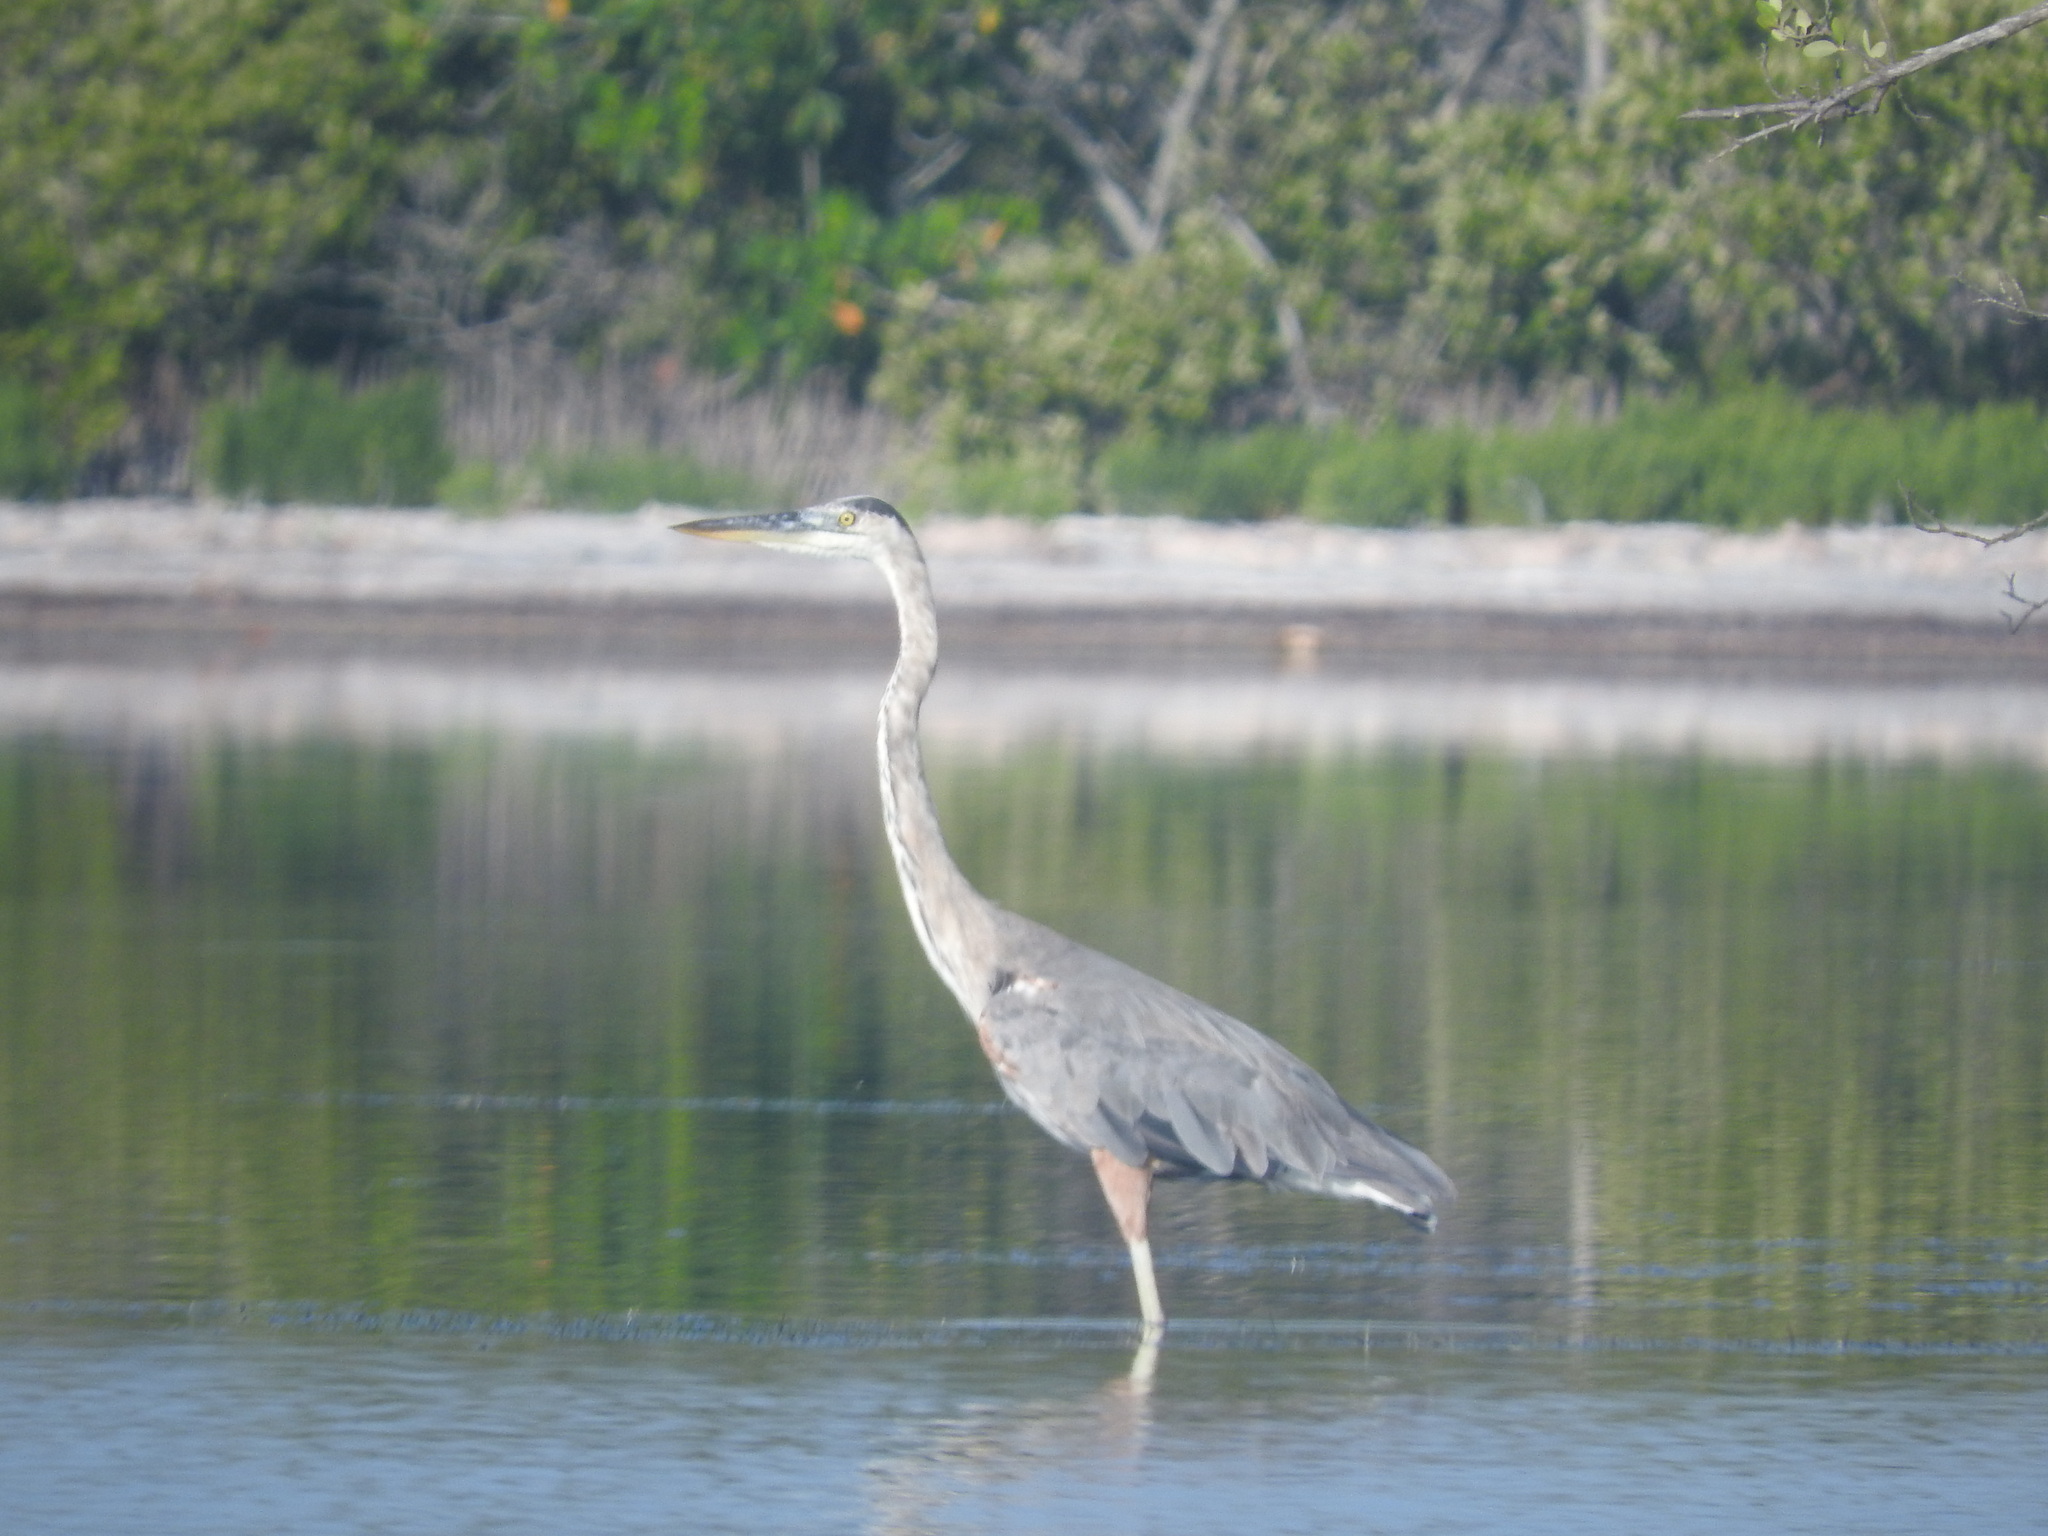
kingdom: Animalia
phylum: Chordata
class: Aves
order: Pelecaniformes
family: Ardeidae
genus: Ardea
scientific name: Ardea herodias
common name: Great blue heron
